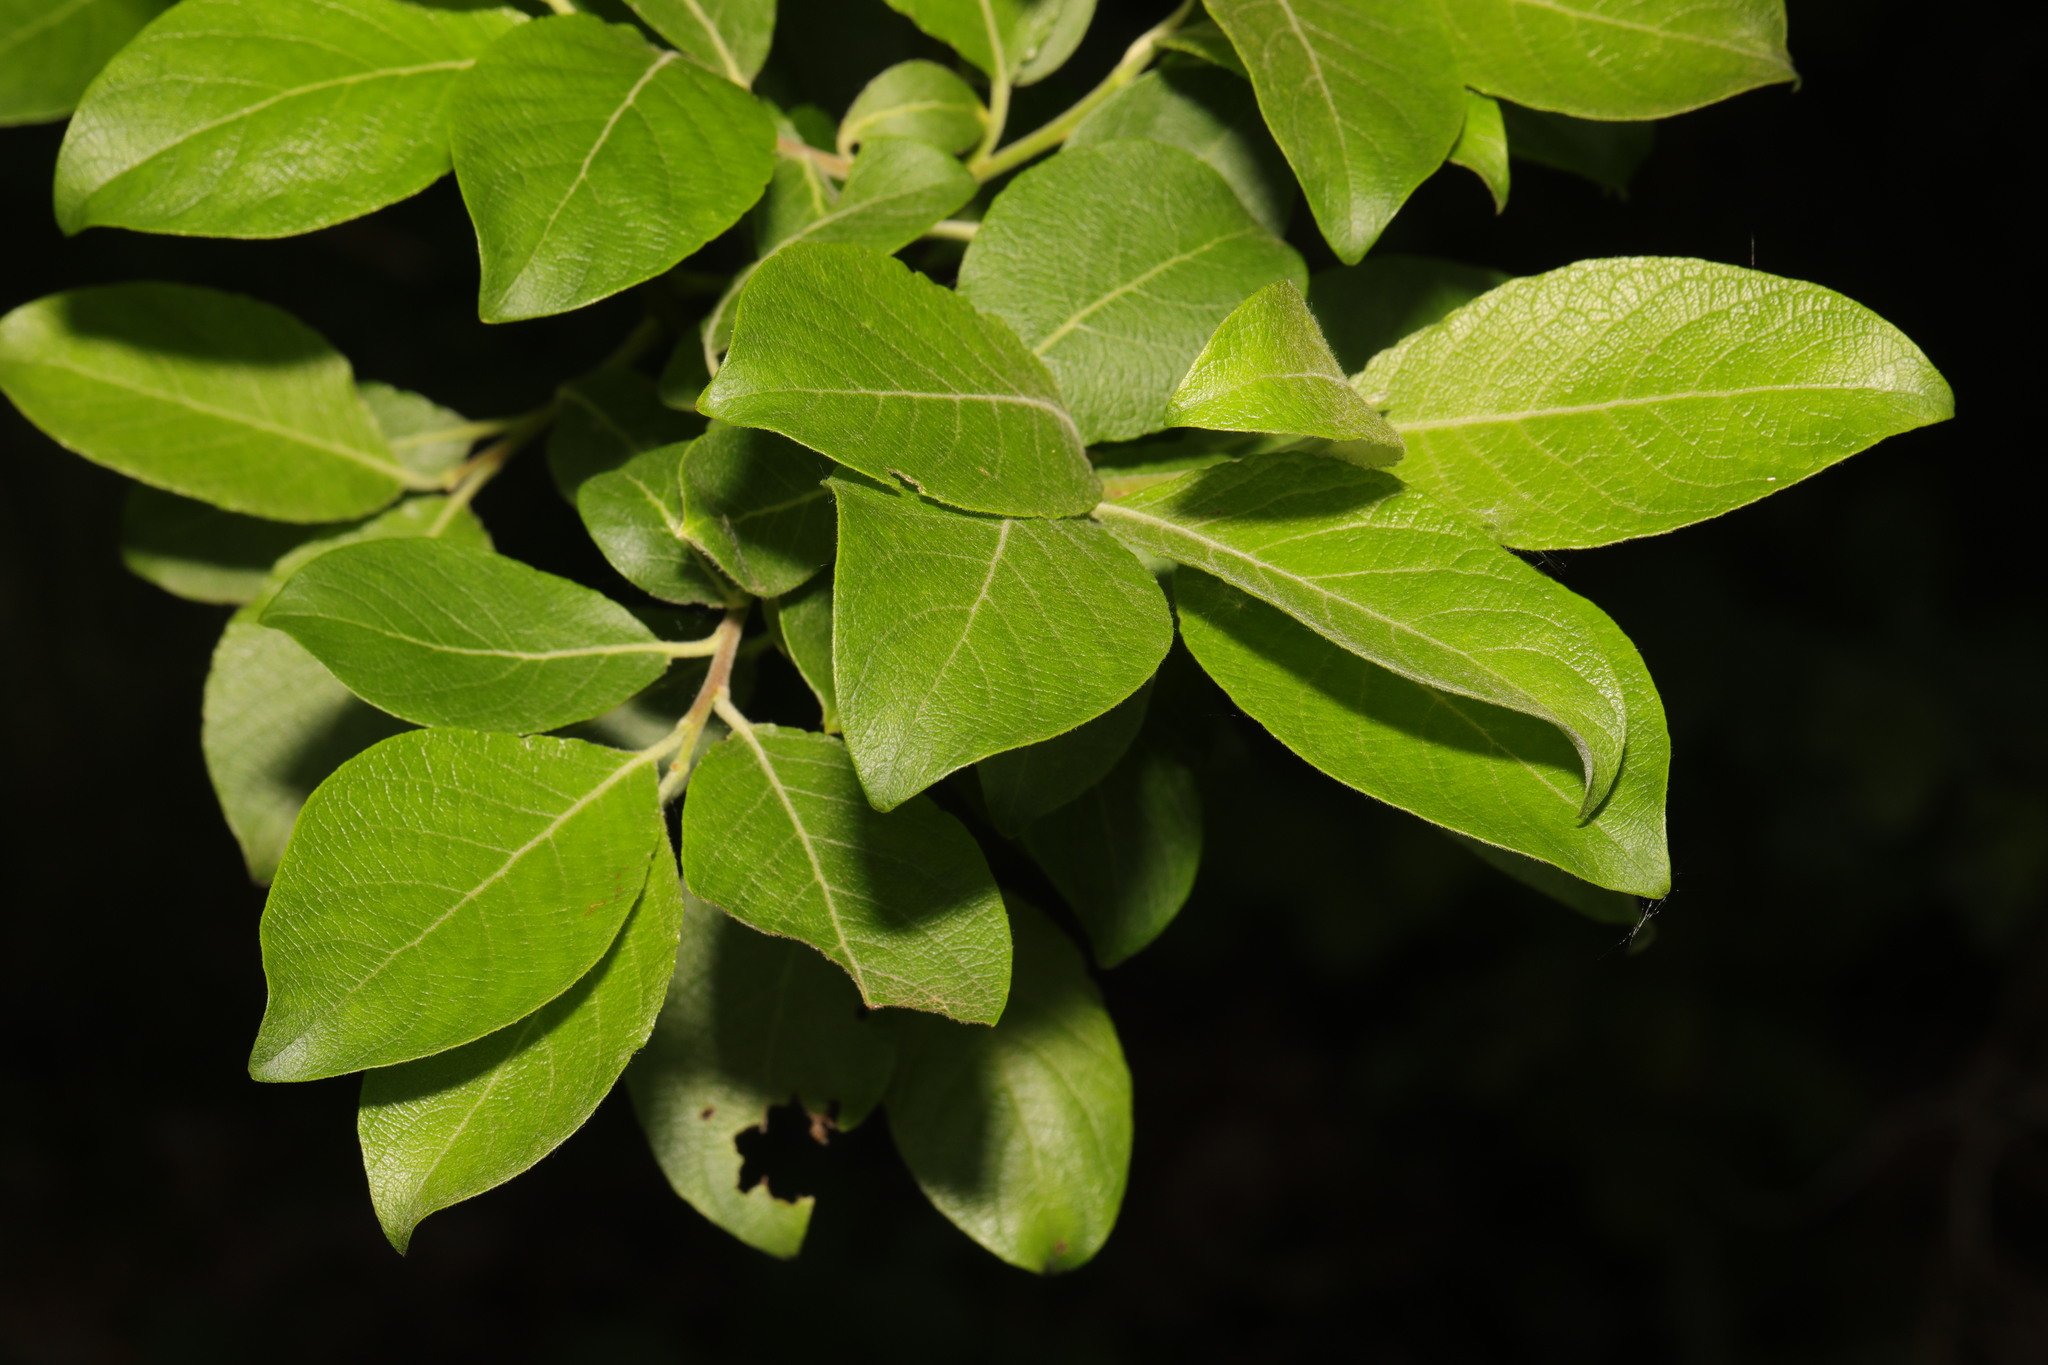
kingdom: Plantae
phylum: Tracheophyta
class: Magnoliopsida
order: Malpighiales
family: Salicaceae
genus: Salix
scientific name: Salix caprea
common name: Goat willow
